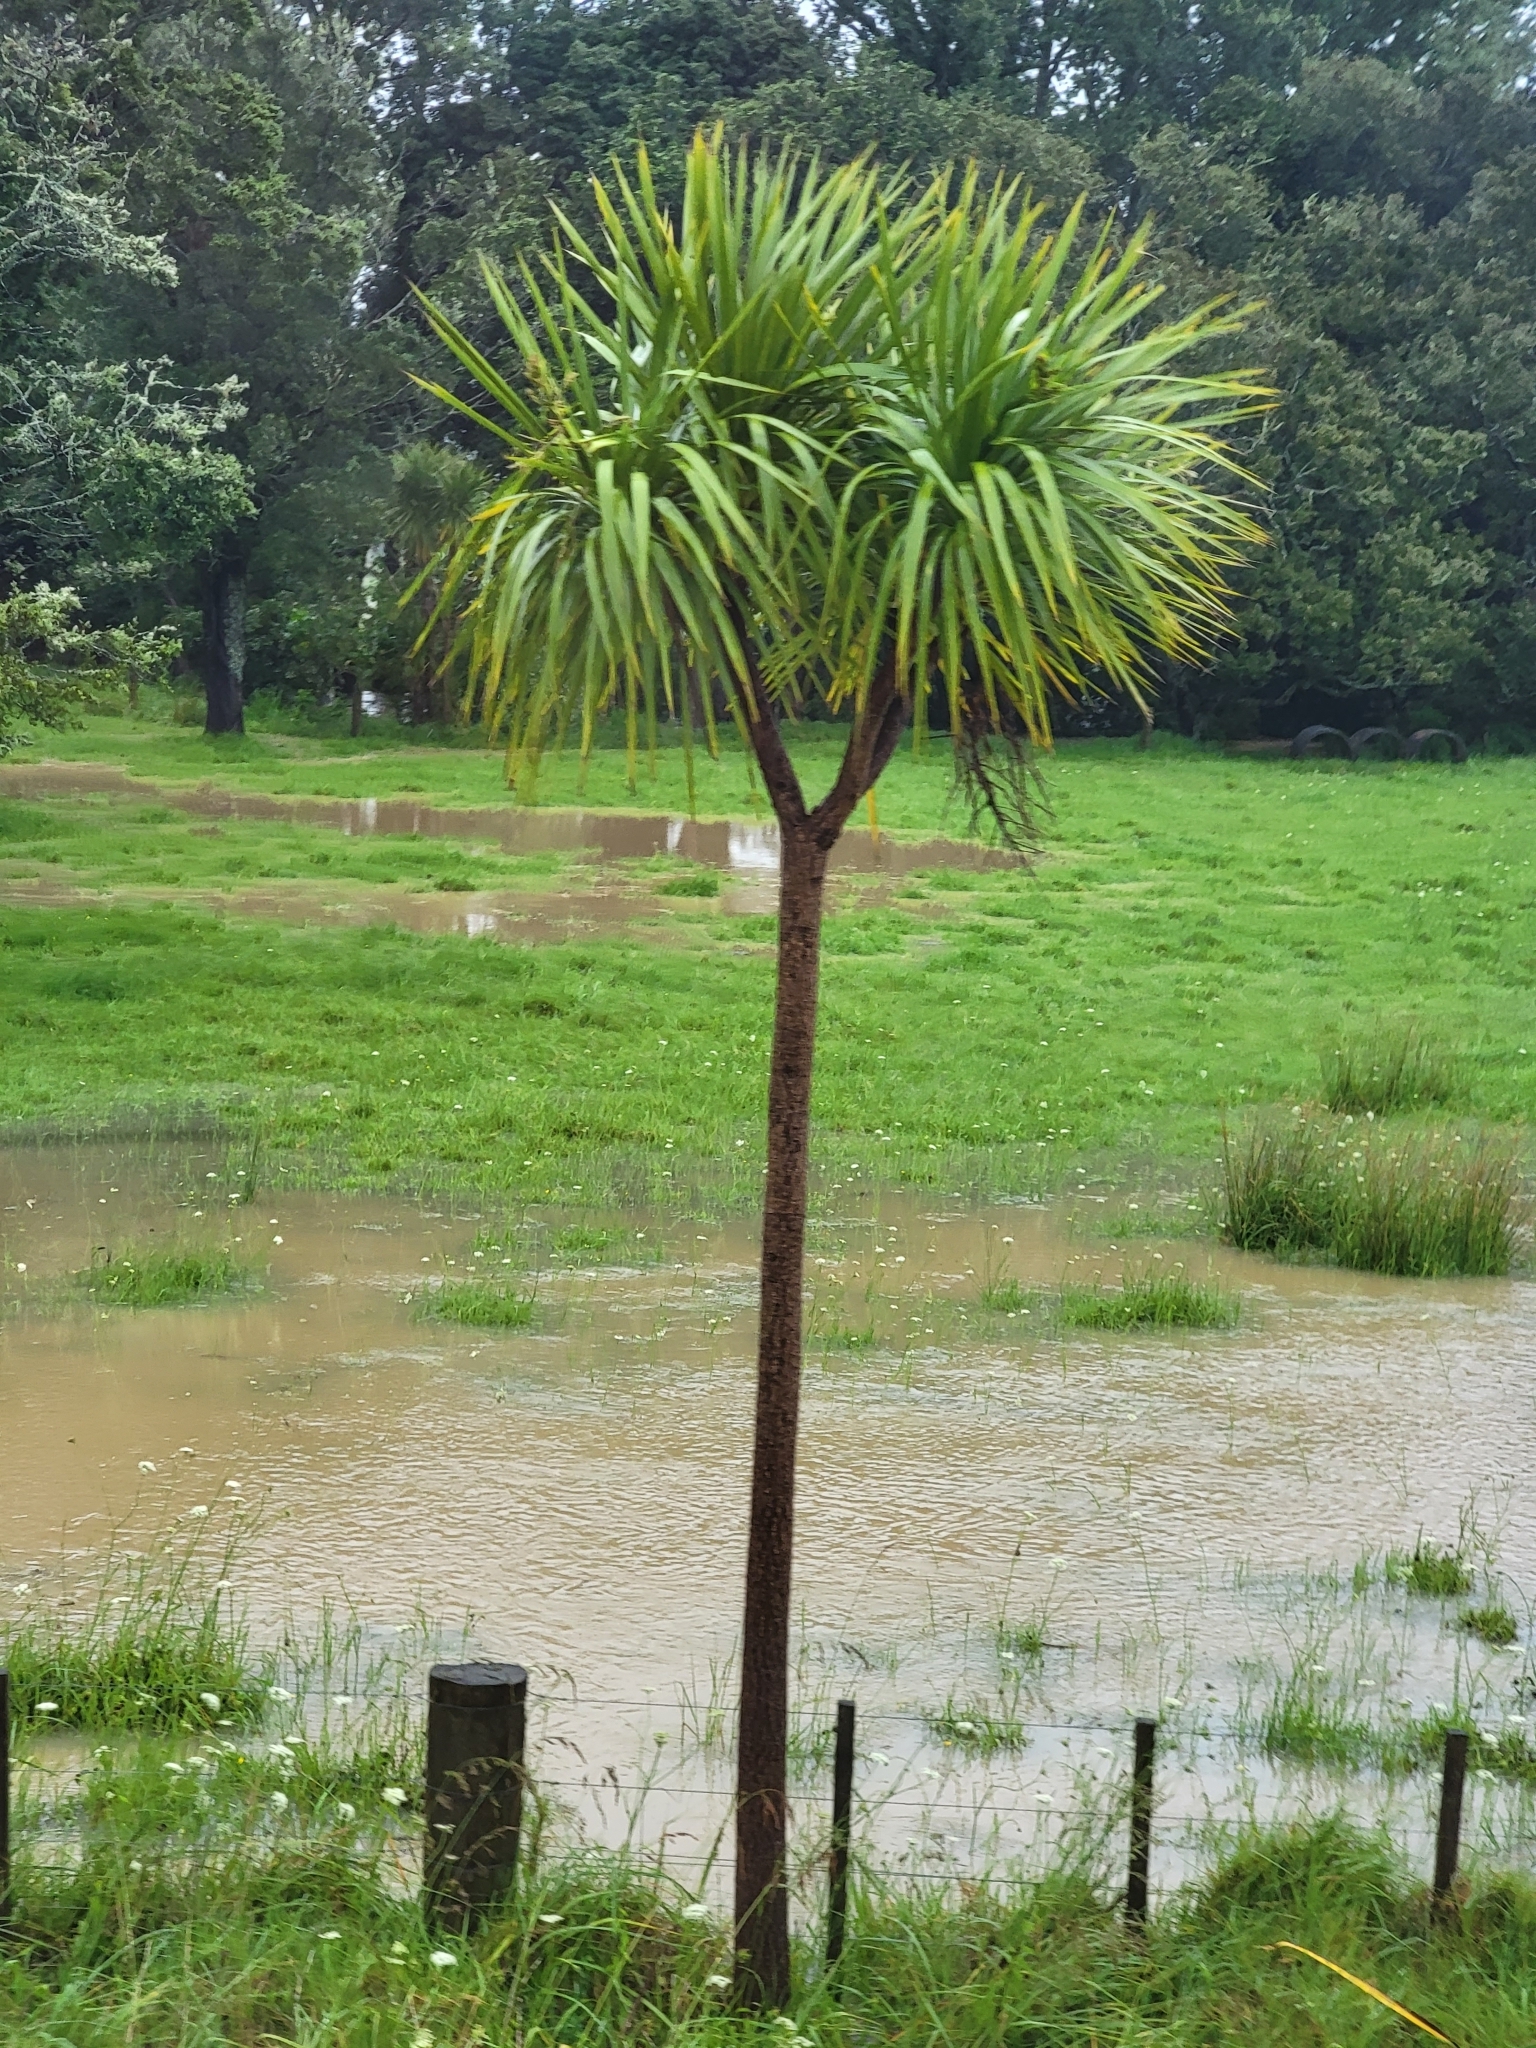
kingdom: Plantae
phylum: Tracheophyta
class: Liliopsida
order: Asparagales
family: Asparagaceae
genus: Cordyline
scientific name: Cordyline australis
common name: Cabbage-palm
